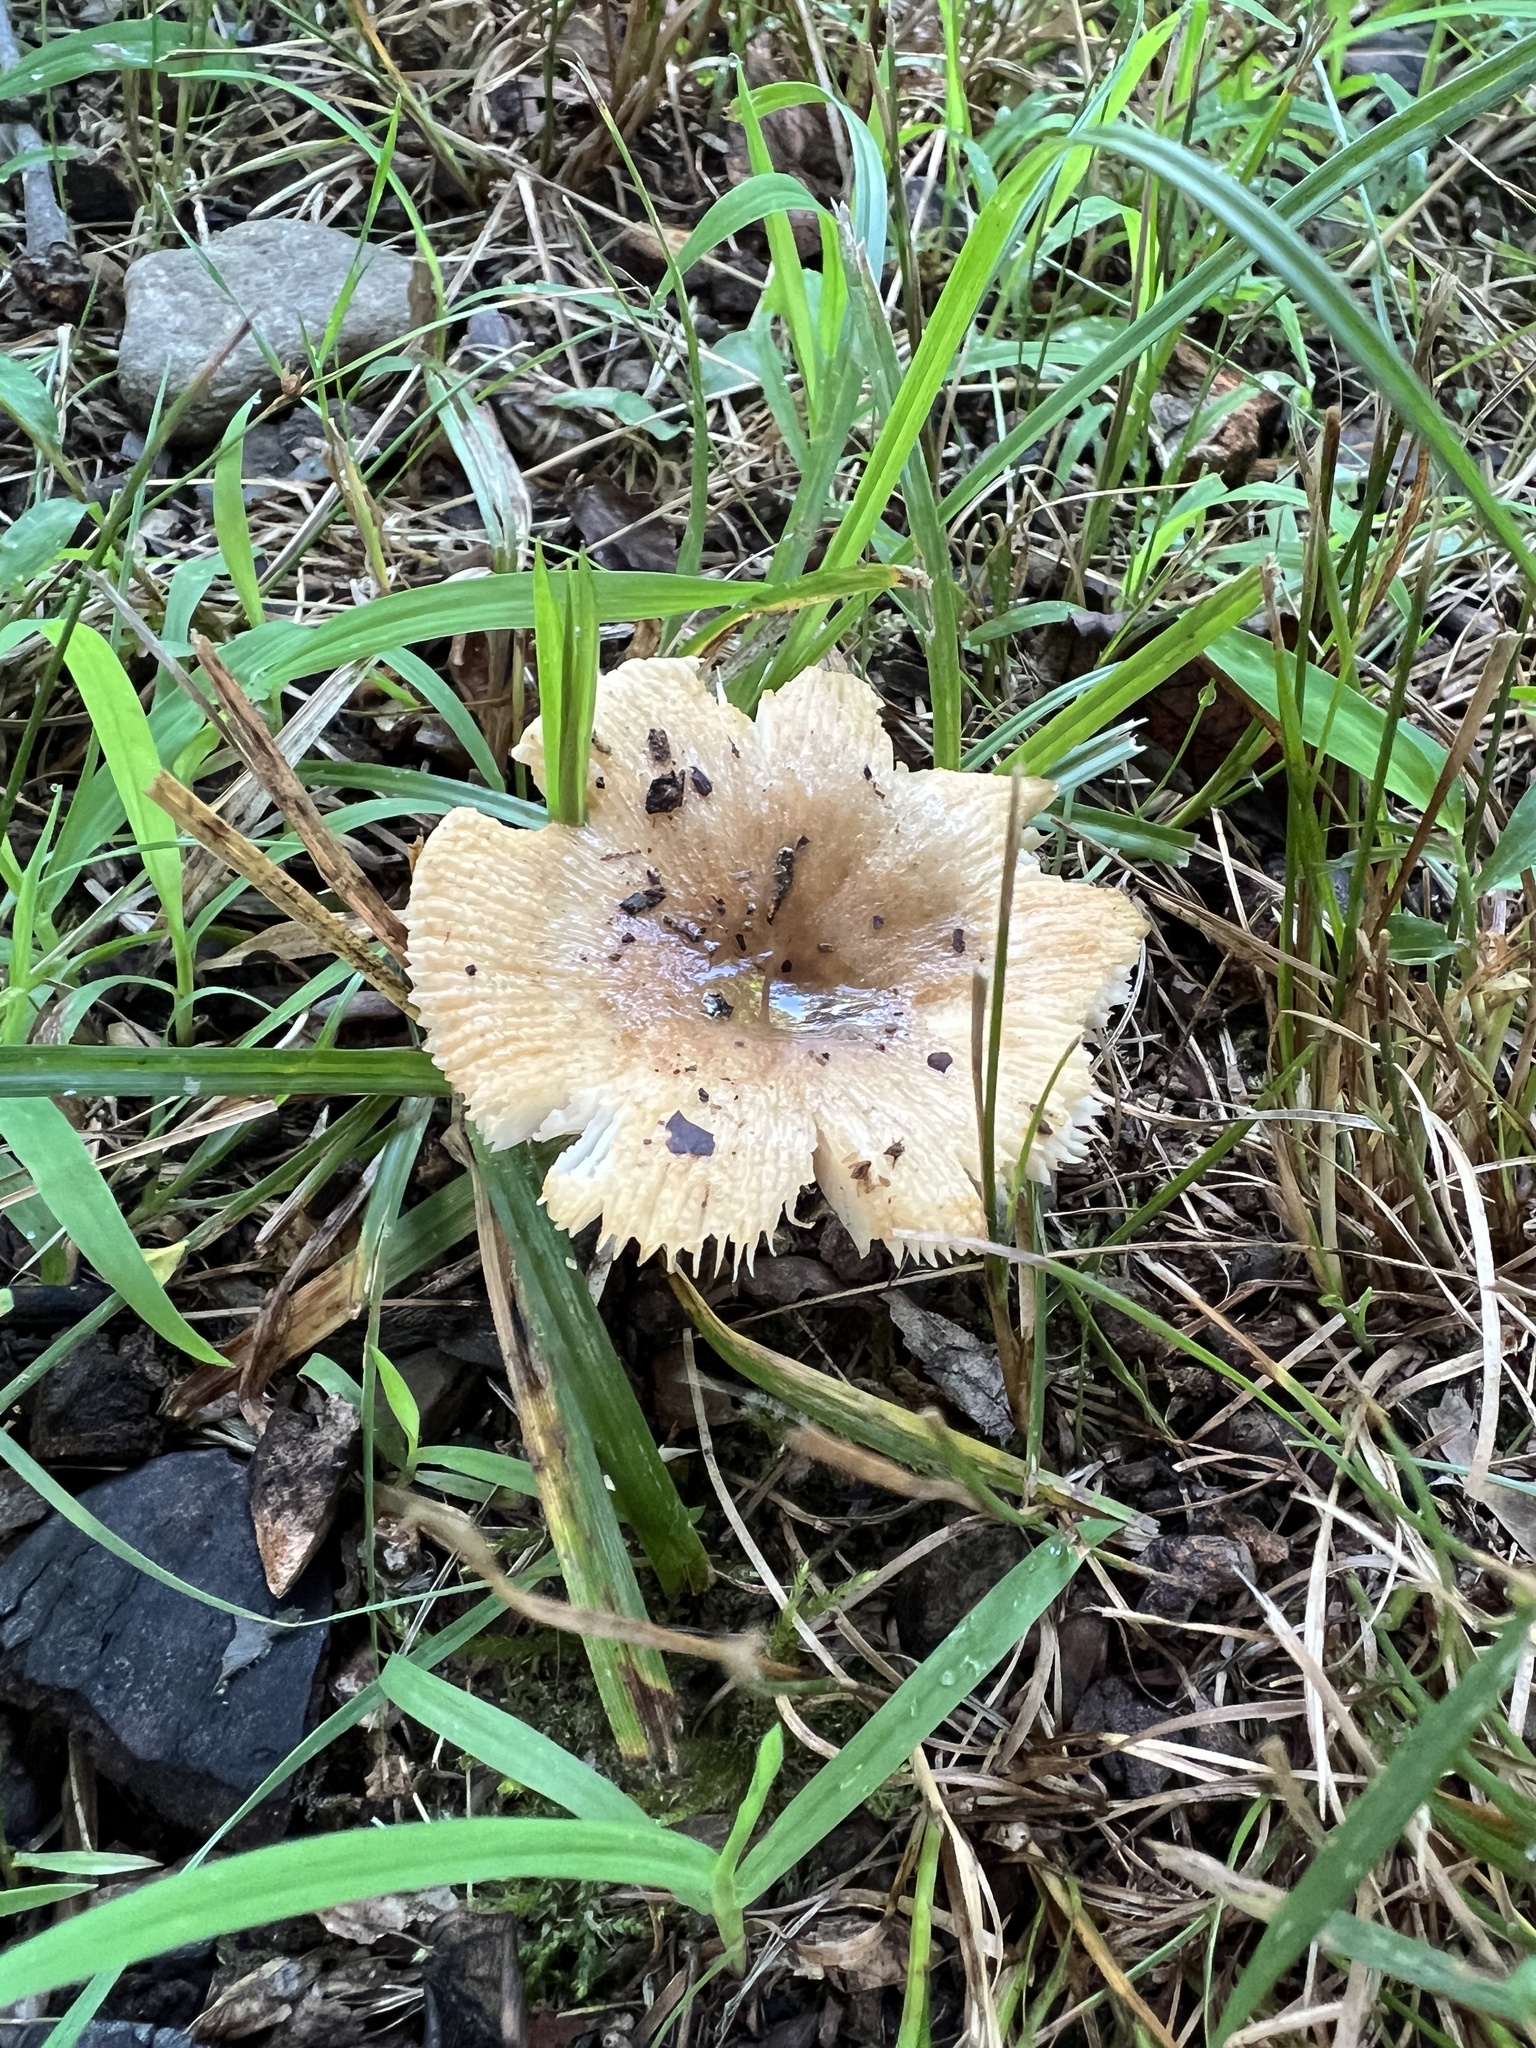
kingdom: Fungi
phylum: Basidiomycota
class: Agaricomycetes
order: Russulales
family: Russulaceae
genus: Russula
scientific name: Russula pectinatoides
